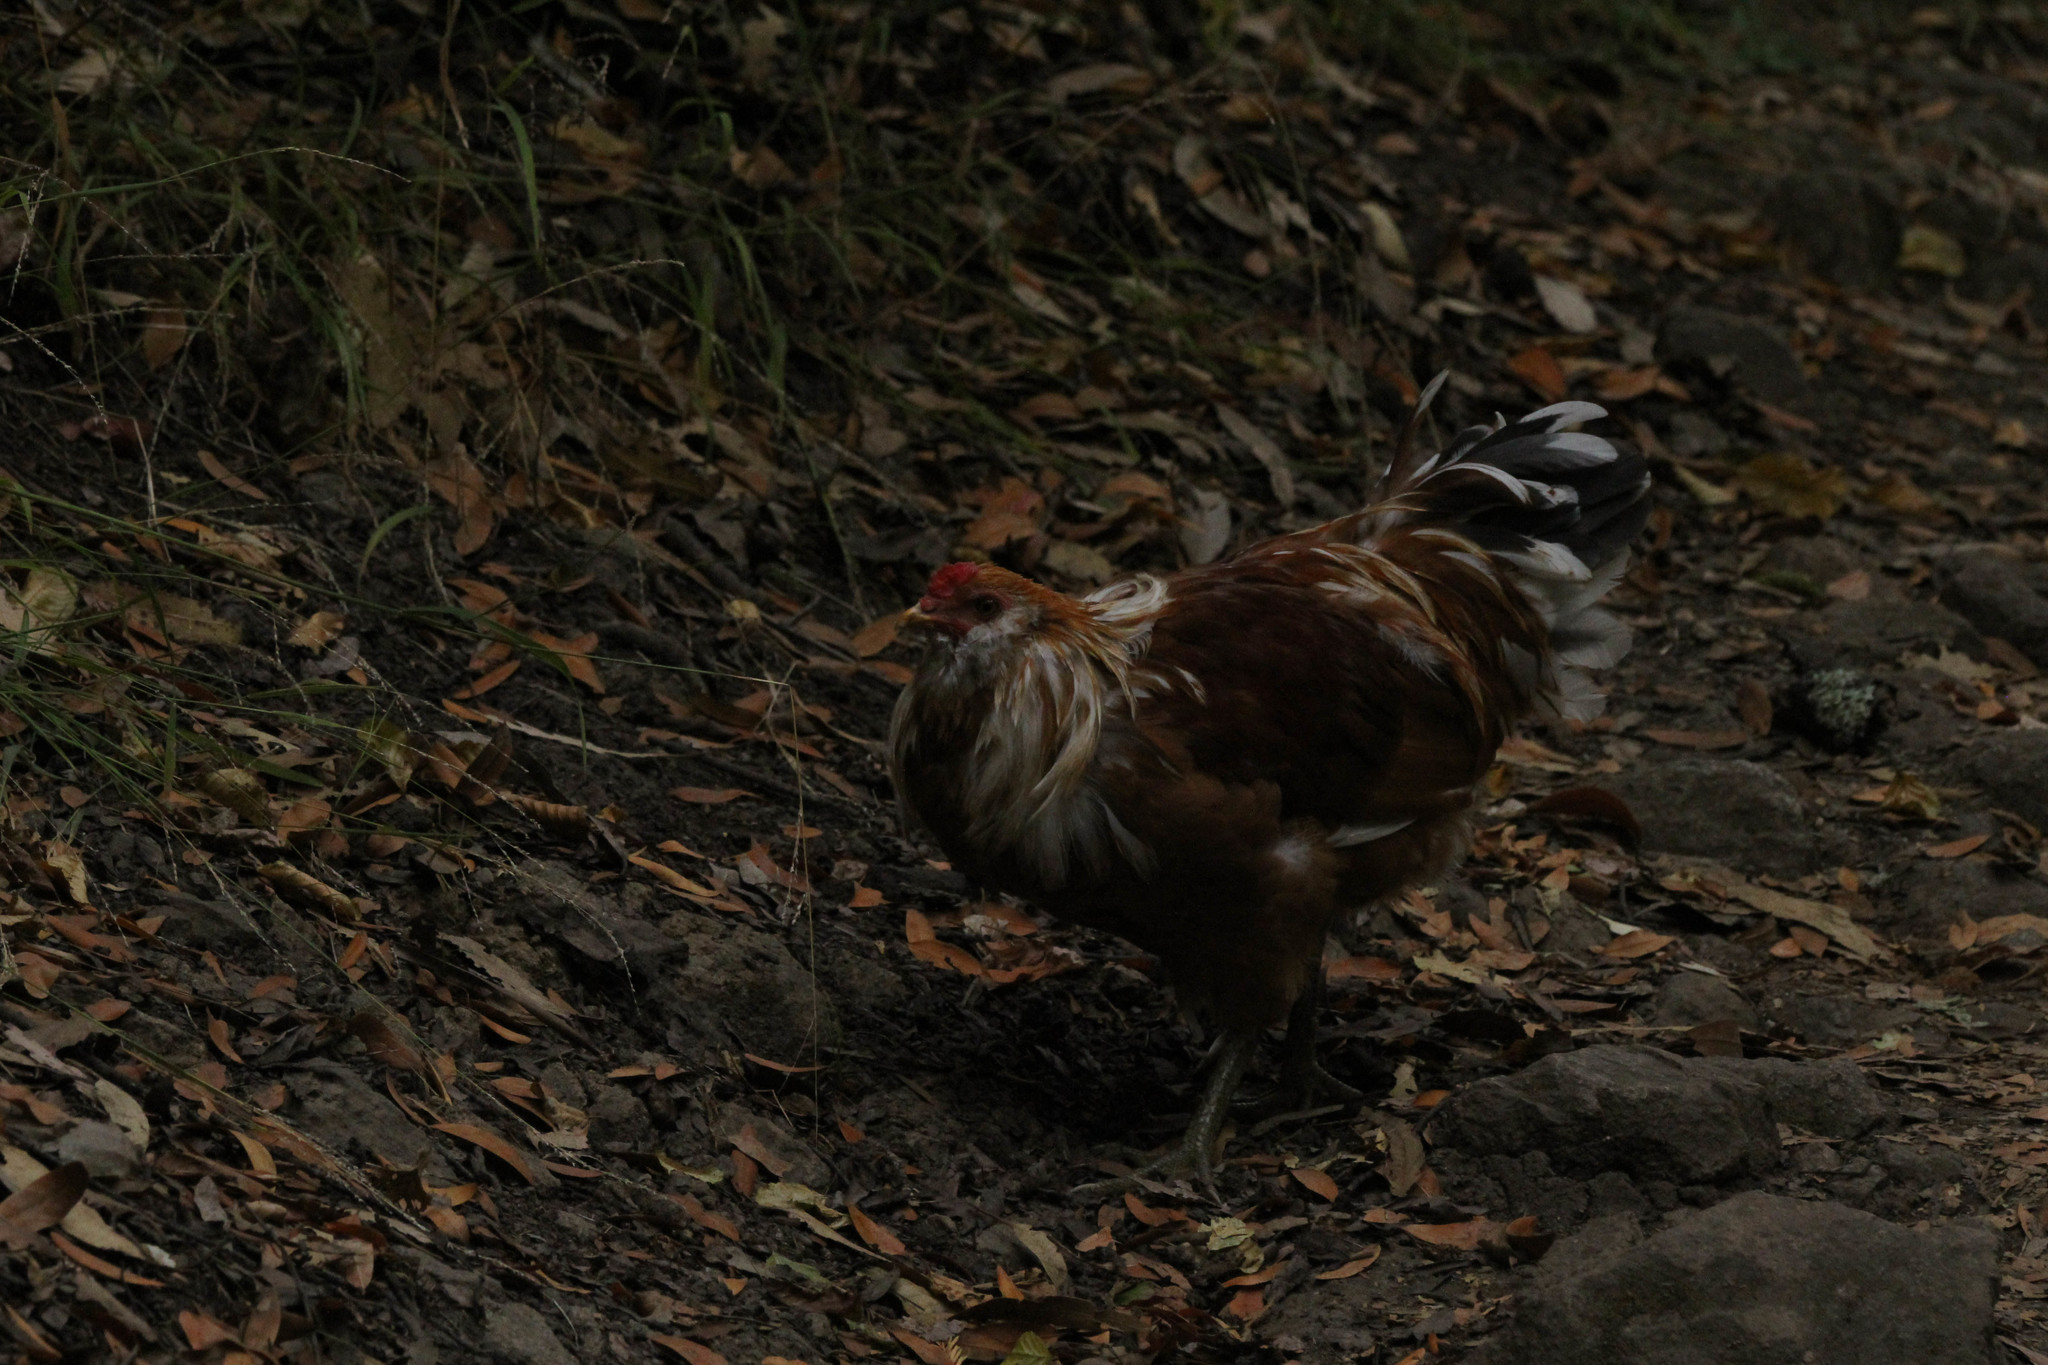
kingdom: Animalia
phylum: Chordata
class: Aves
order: Galliformes
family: Phasianidae
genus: Gallus
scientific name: Gallus gallus
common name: Red junglefowl
